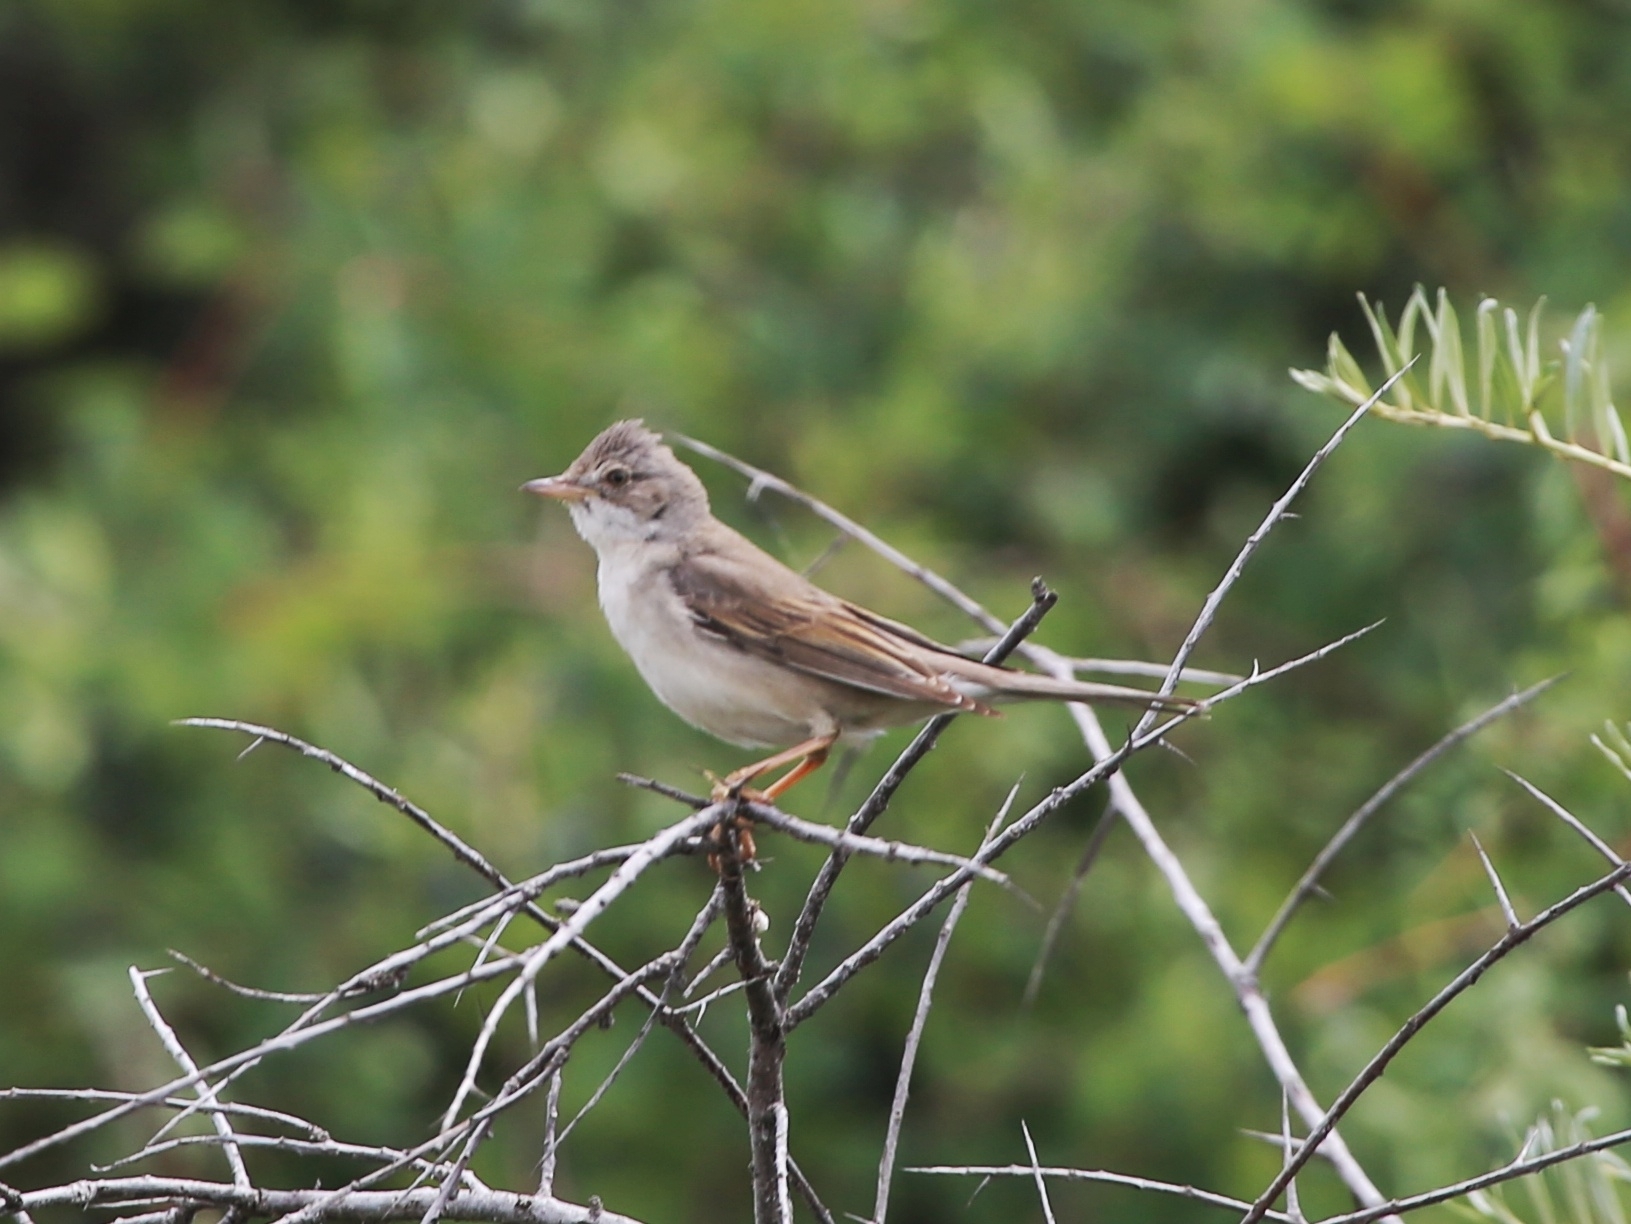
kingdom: Animalia
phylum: Chordata
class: Aves
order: Passeriformes
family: Sylviidae
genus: Sylvia
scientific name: Sylvia communis
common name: Common whitethroat
